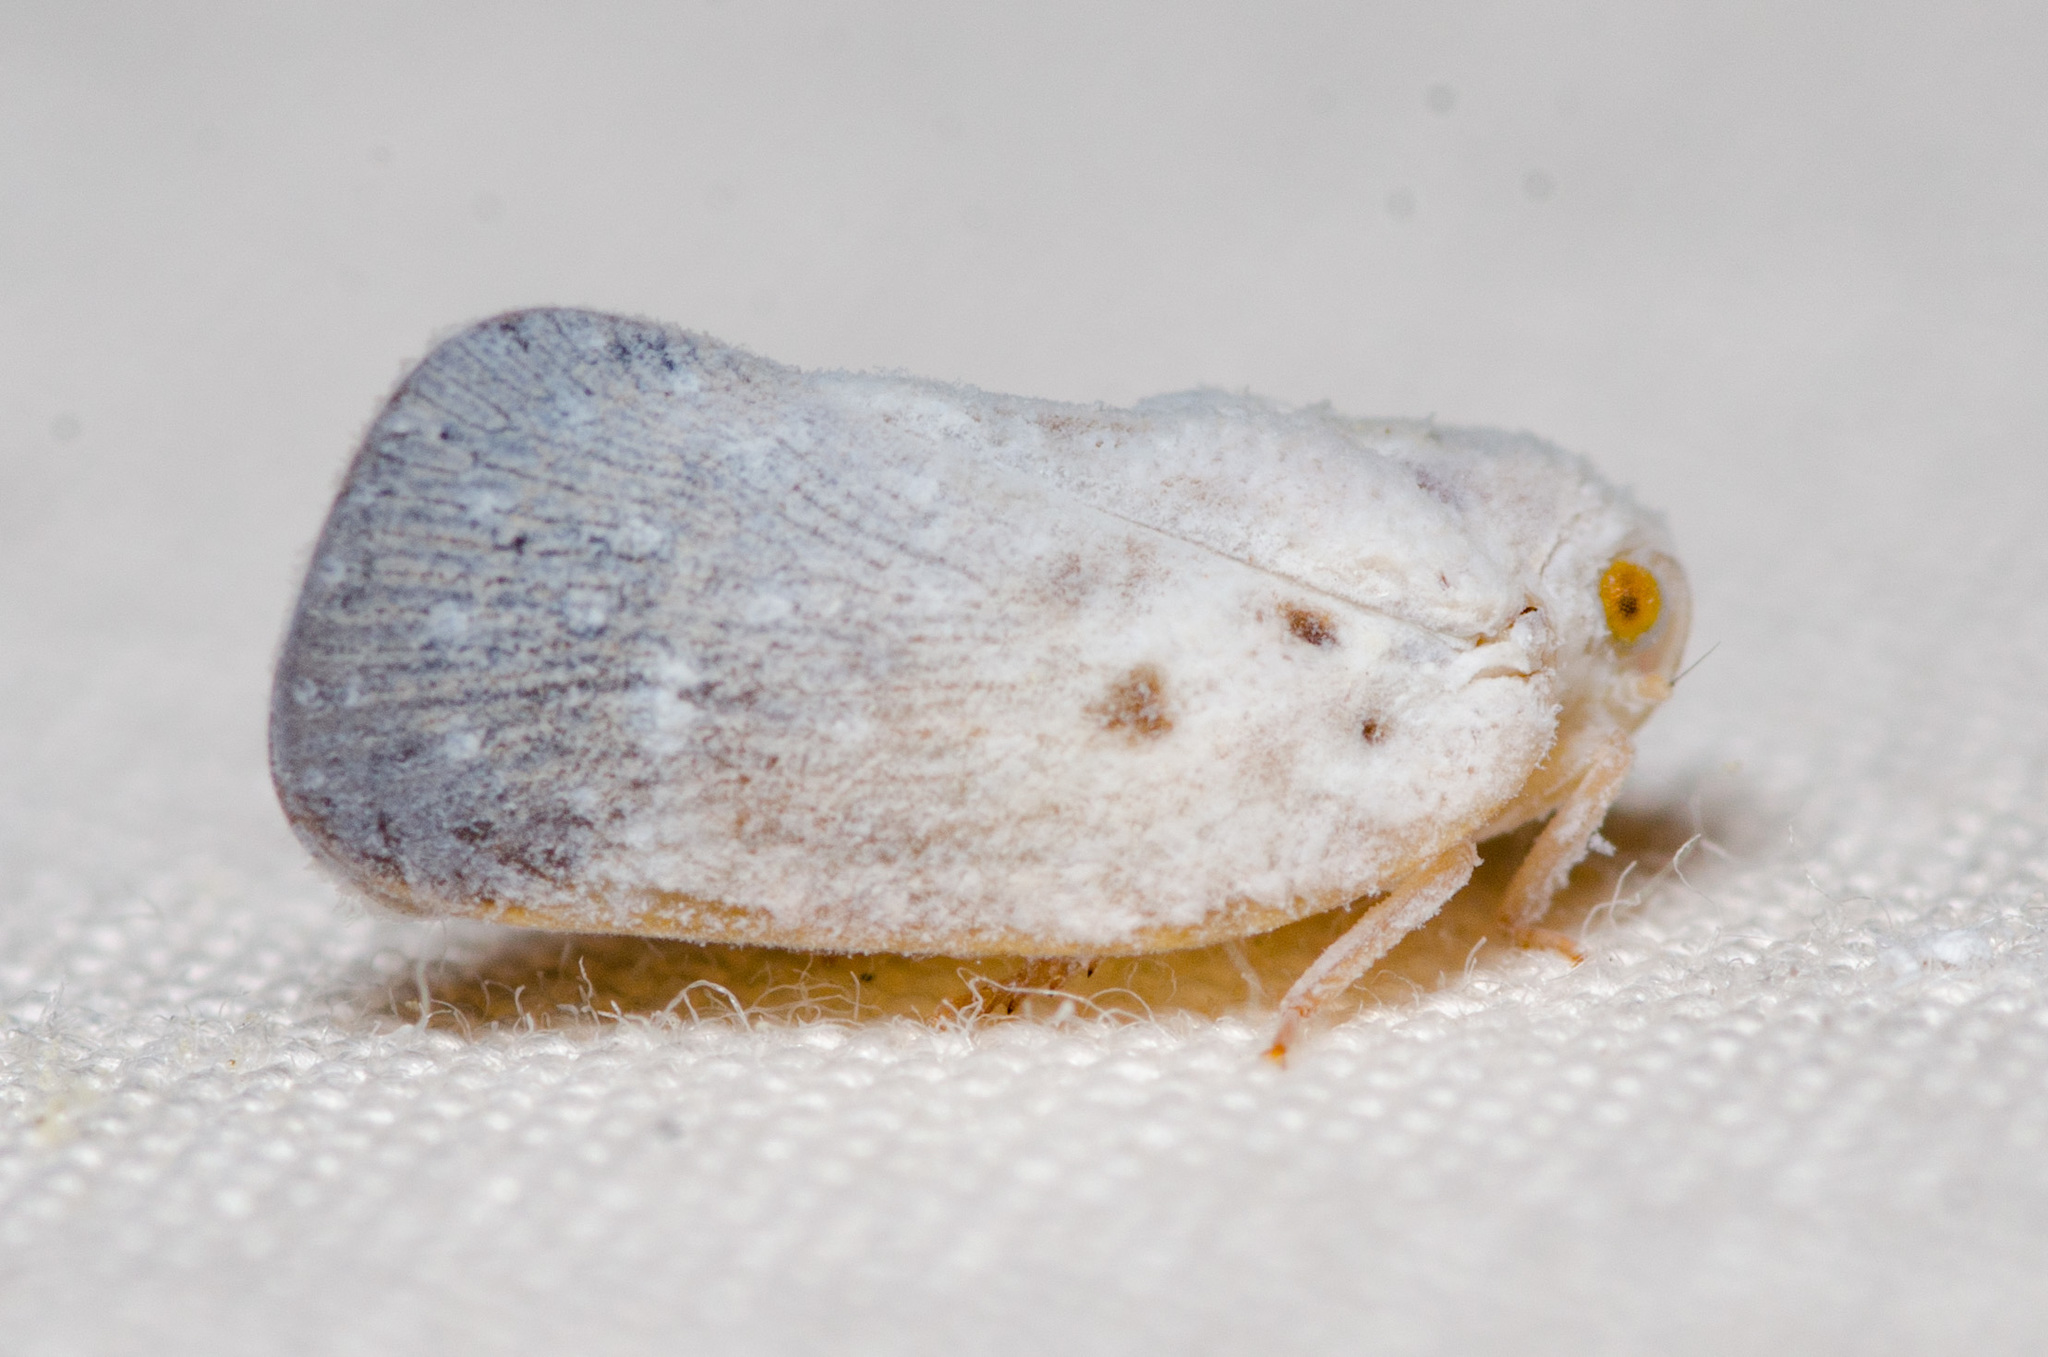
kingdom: Animalia
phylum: Arthropoda
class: Insecta
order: Hemiptera
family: Flatidae
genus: Metcalfa
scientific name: Metcalfa pruinosa
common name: Citrus flatid planthopper
